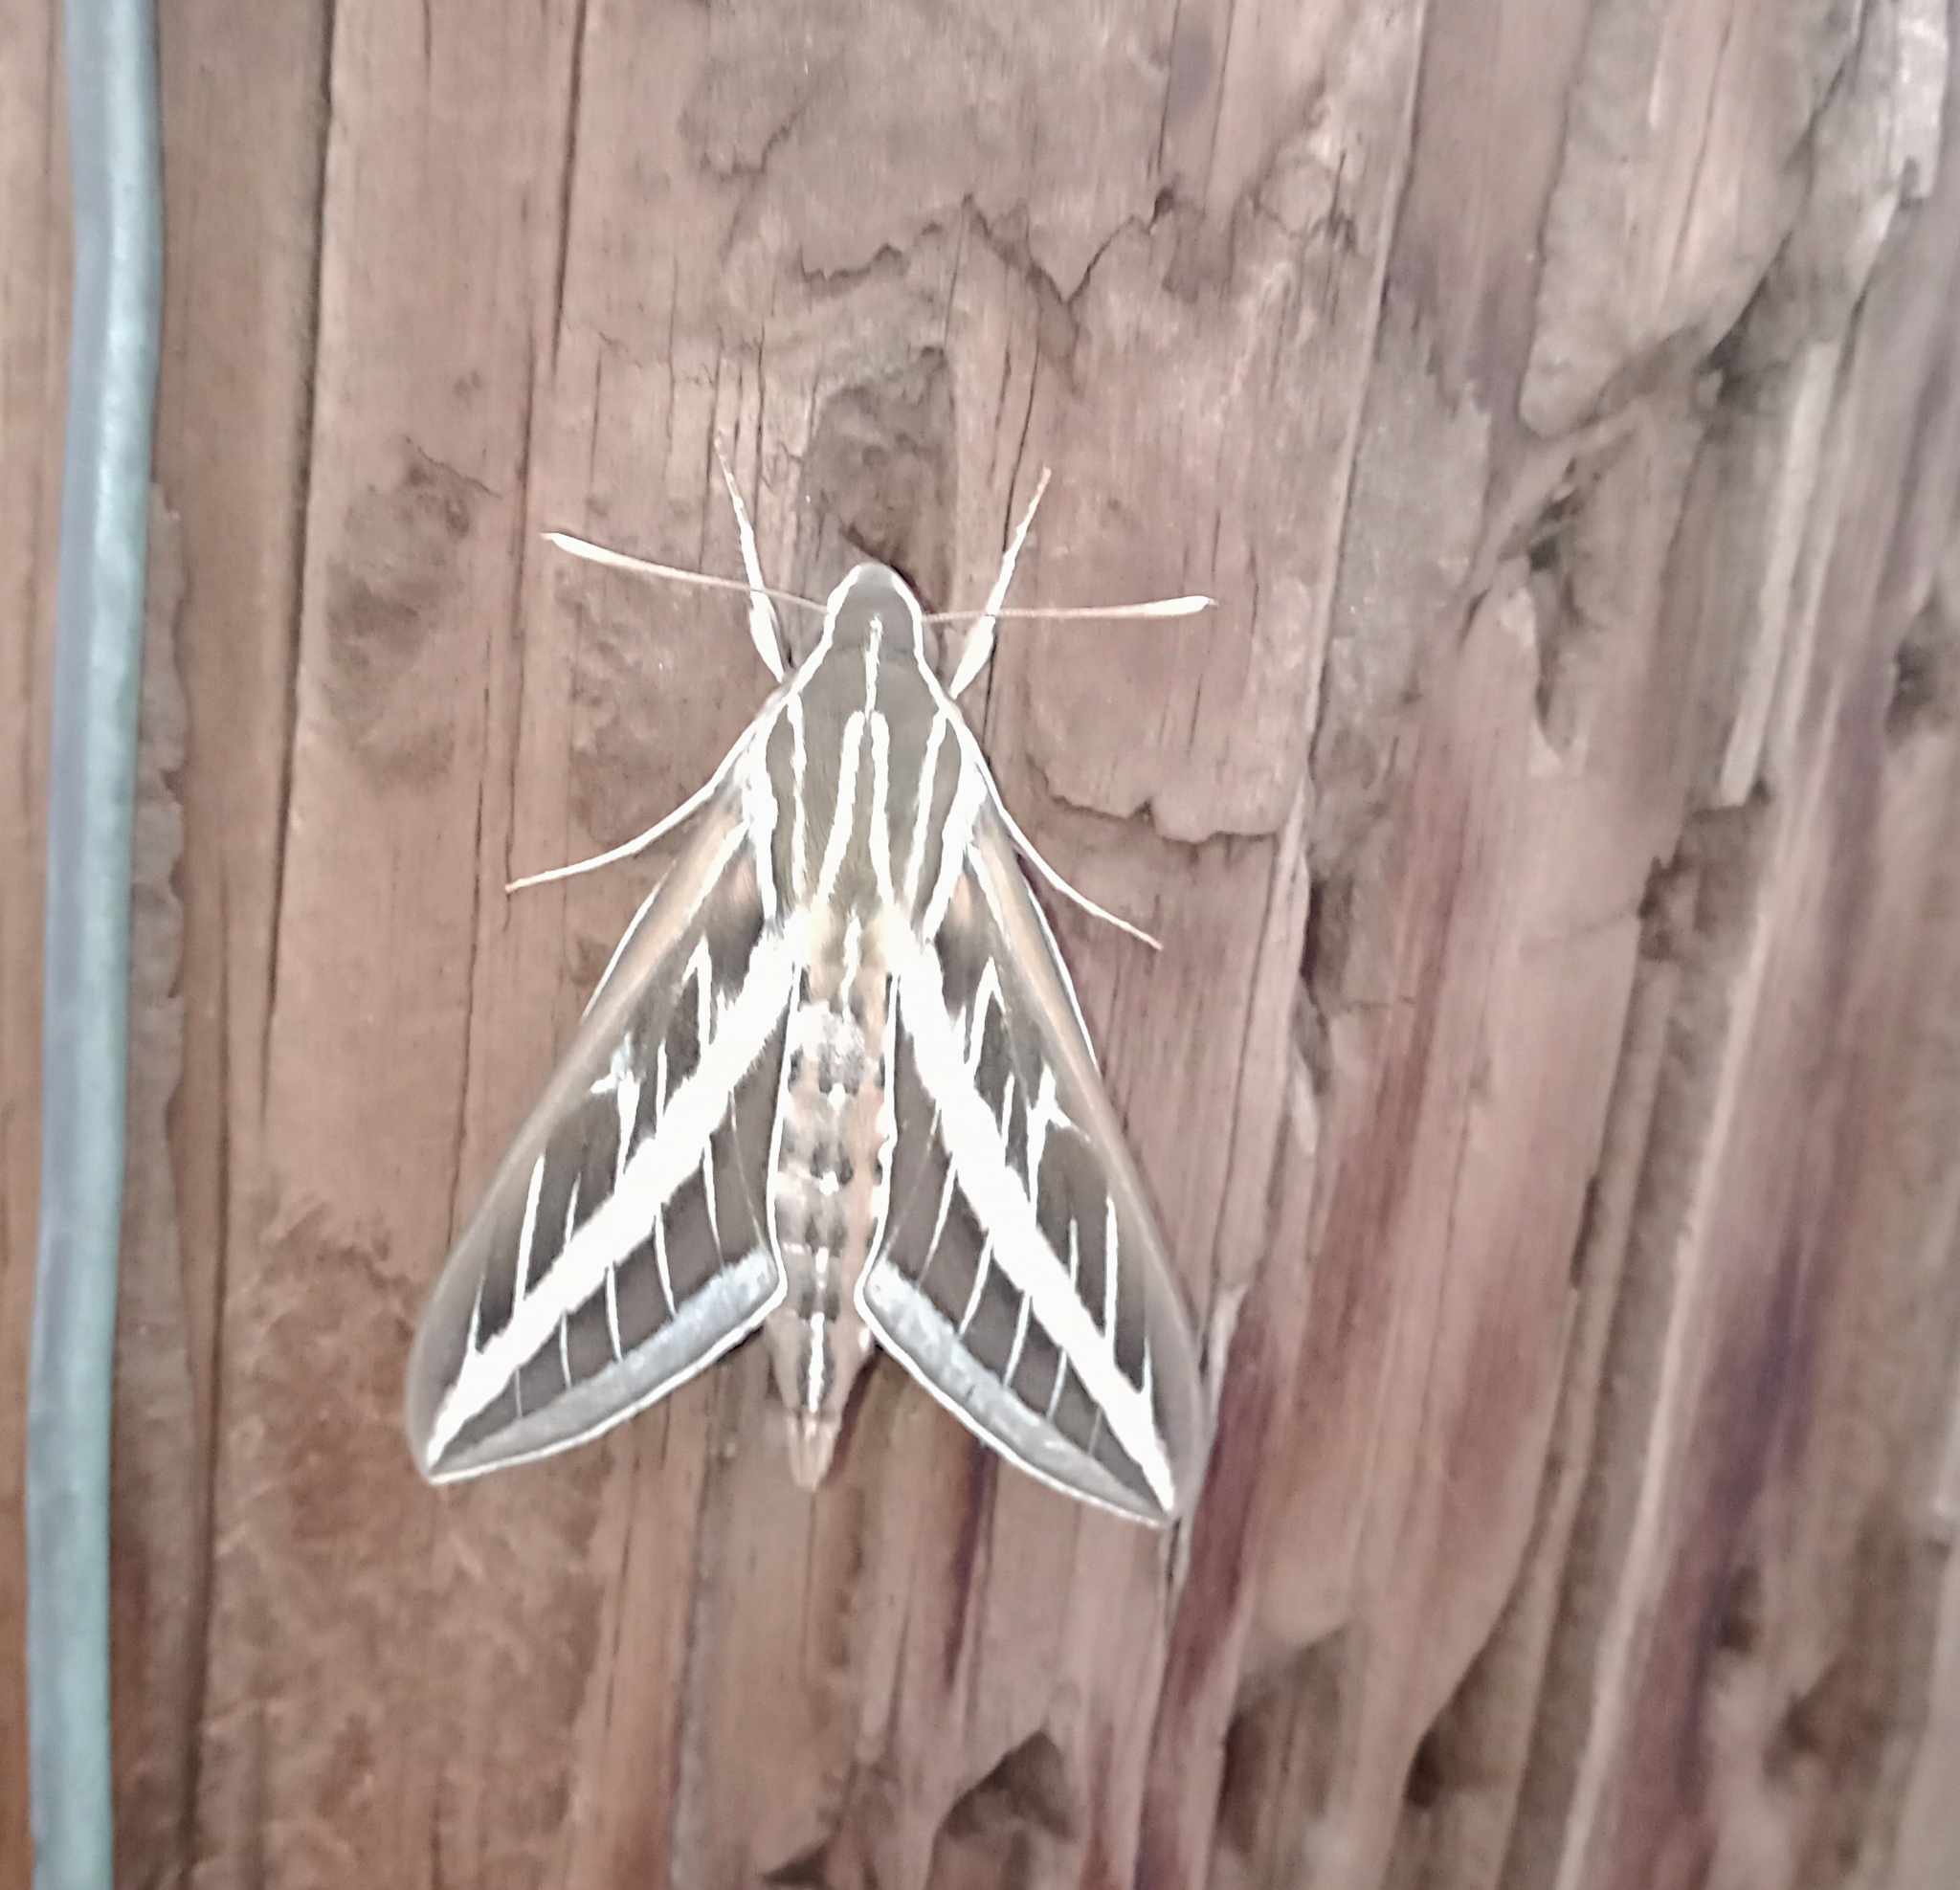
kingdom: Animalia
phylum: Arthropoda
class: Insecta
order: Lepidoptera
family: Sphingidae
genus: Hyles
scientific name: Hyles lineata
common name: White-lined sphinx
